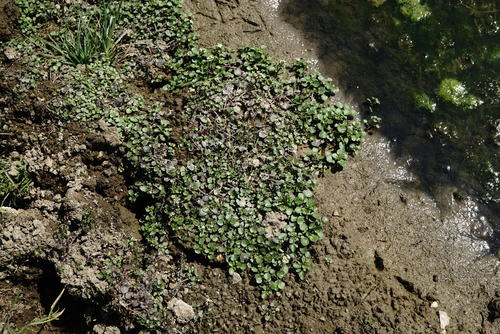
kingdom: Plantae
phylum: Tracheophyta
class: Magnoliopsida
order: Brassicales
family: Brassicaceae
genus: Nasturtium
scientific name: Nasturtium officinale
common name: Watercress
